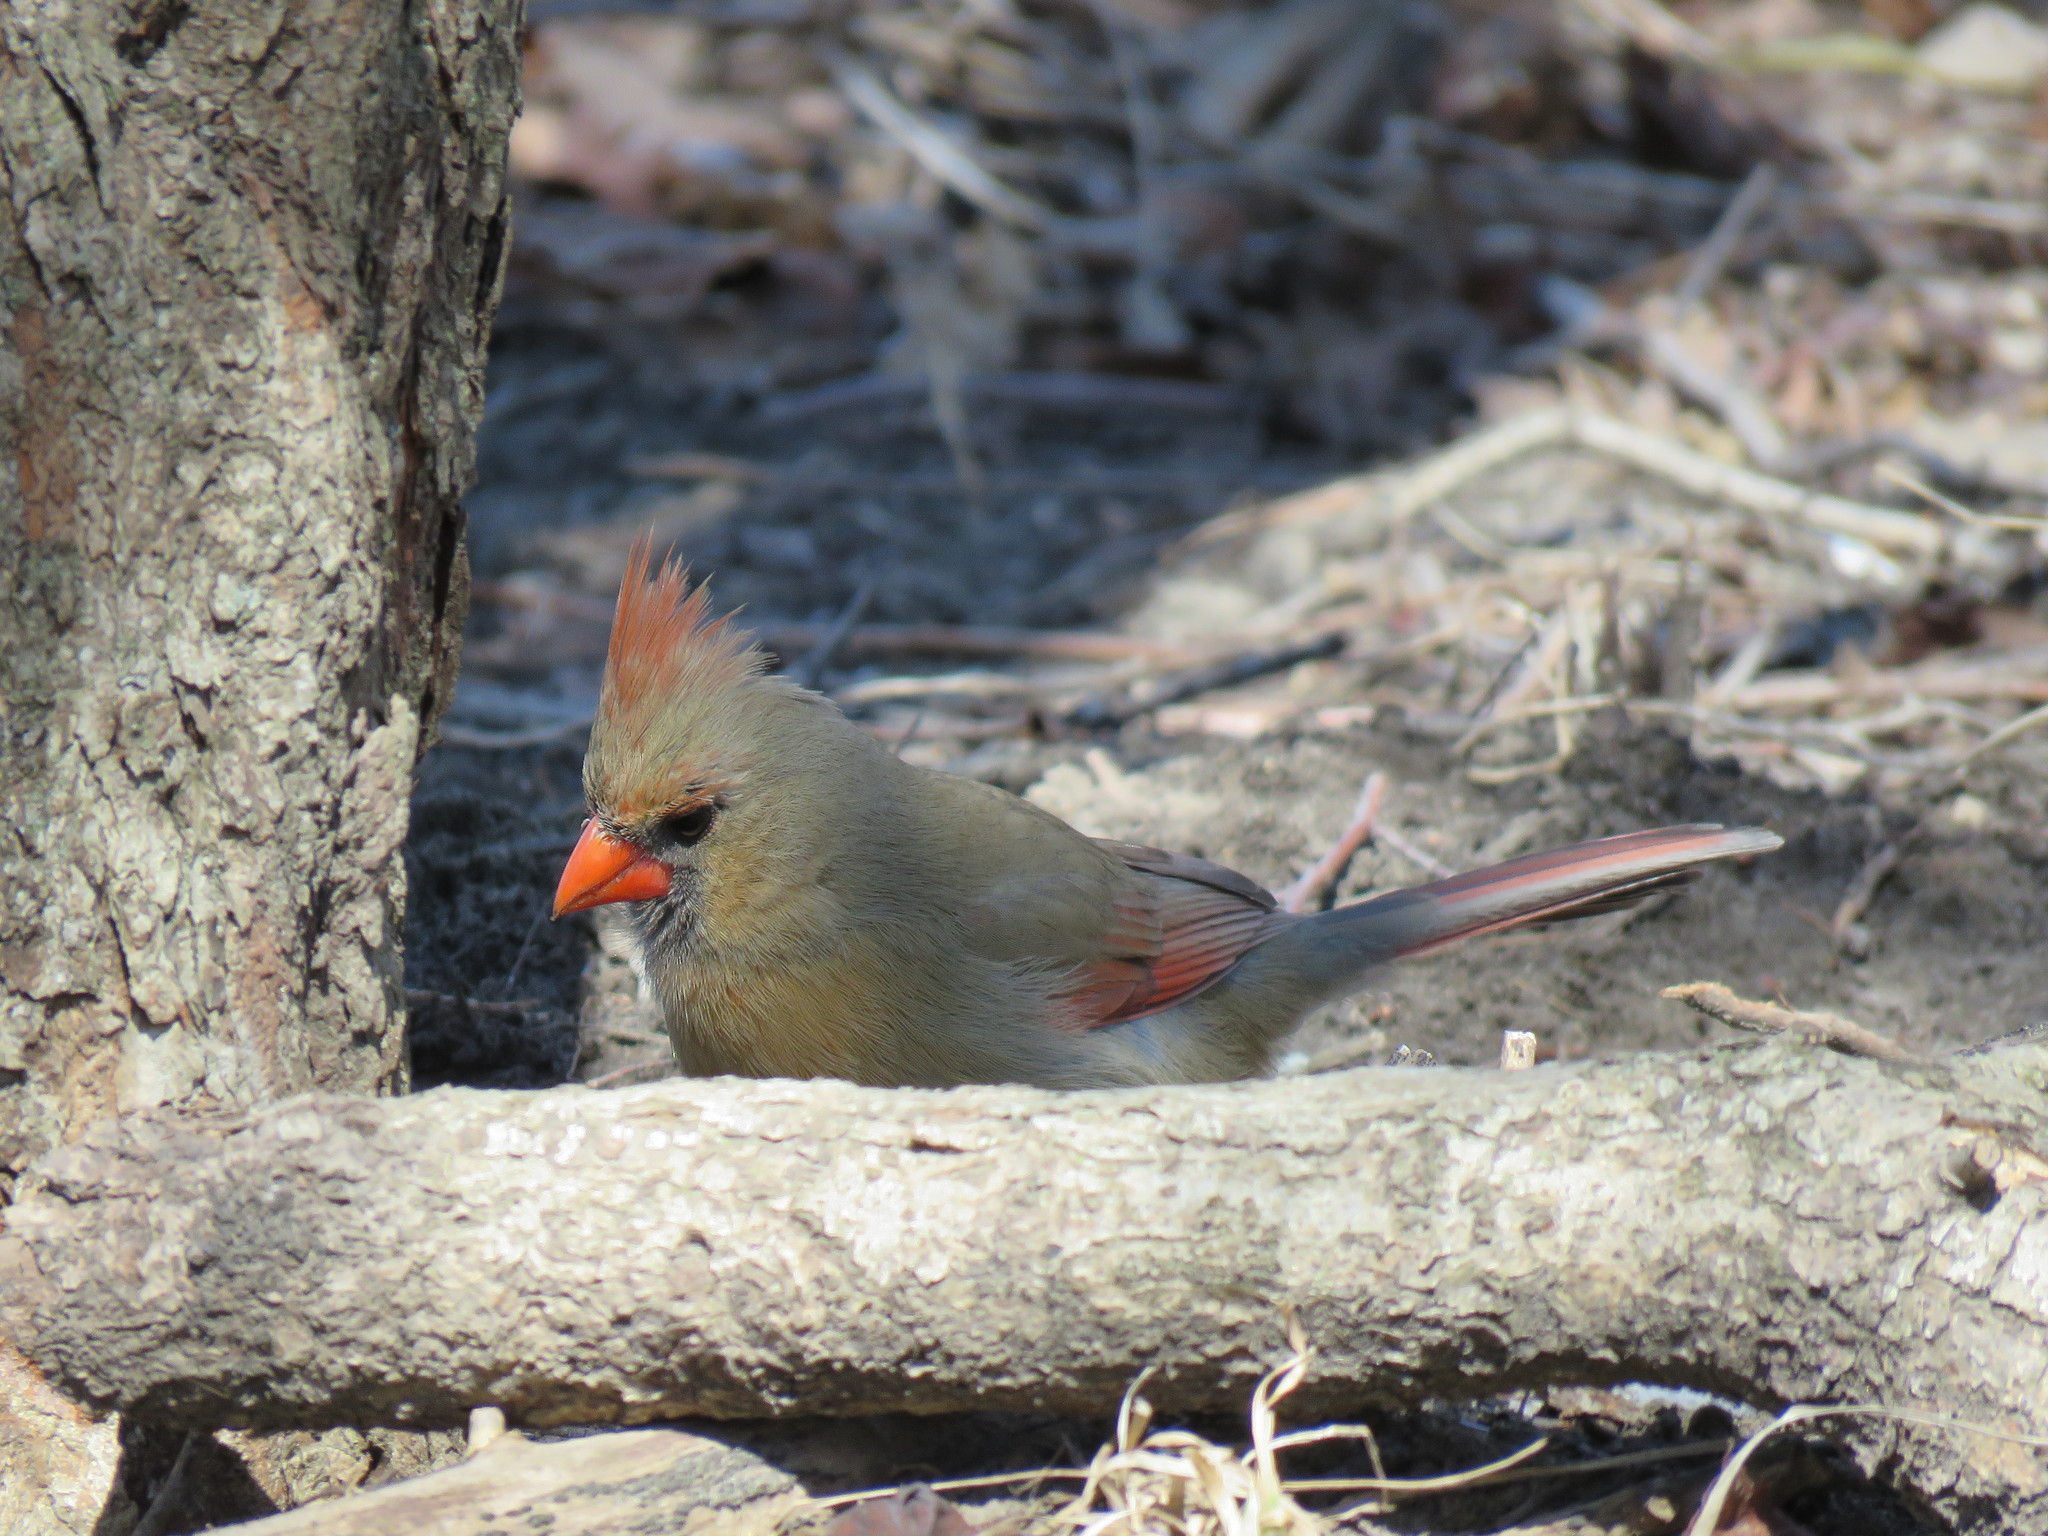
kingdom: Animalia
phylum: Chordata
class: Aves
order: Passeriformes
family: Cardinalidae
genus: Cardinalis
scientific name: Cardinalis cardinalis
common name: Northern cardinal
